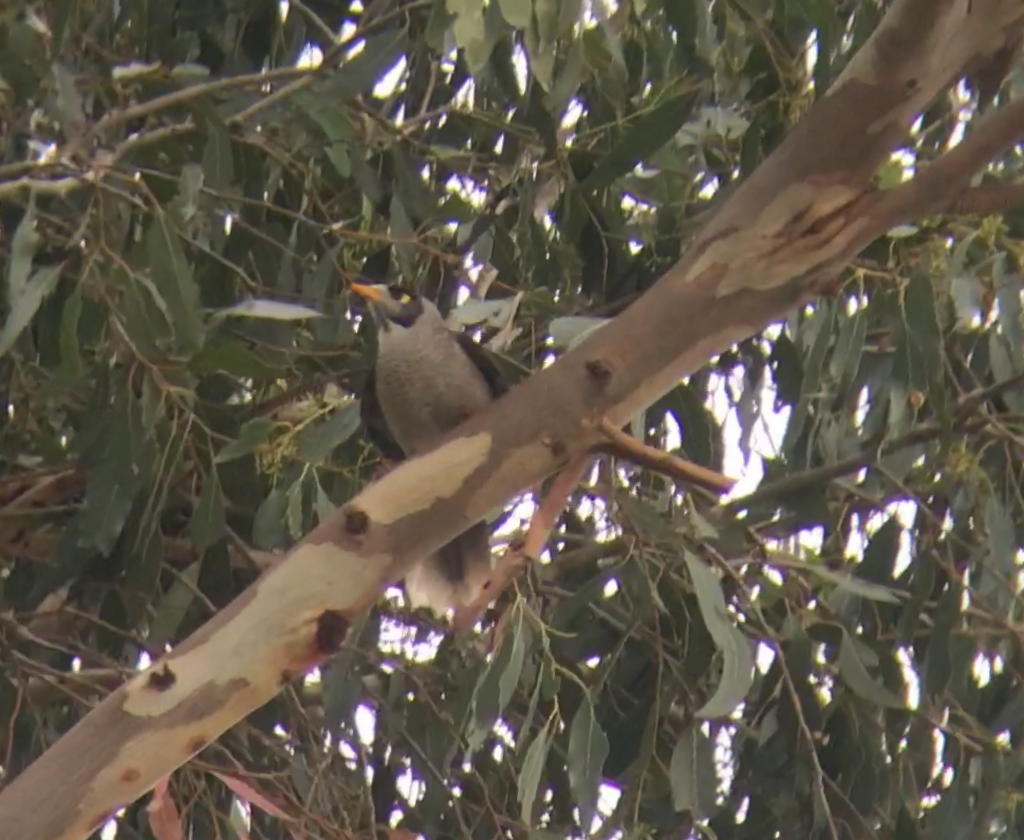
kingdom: Animalia
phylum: Chordata
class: Aves
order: Passeriformes
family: Meliphagidae
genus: Manorina
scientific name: Manorina melanocephala
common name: Noisy miner
